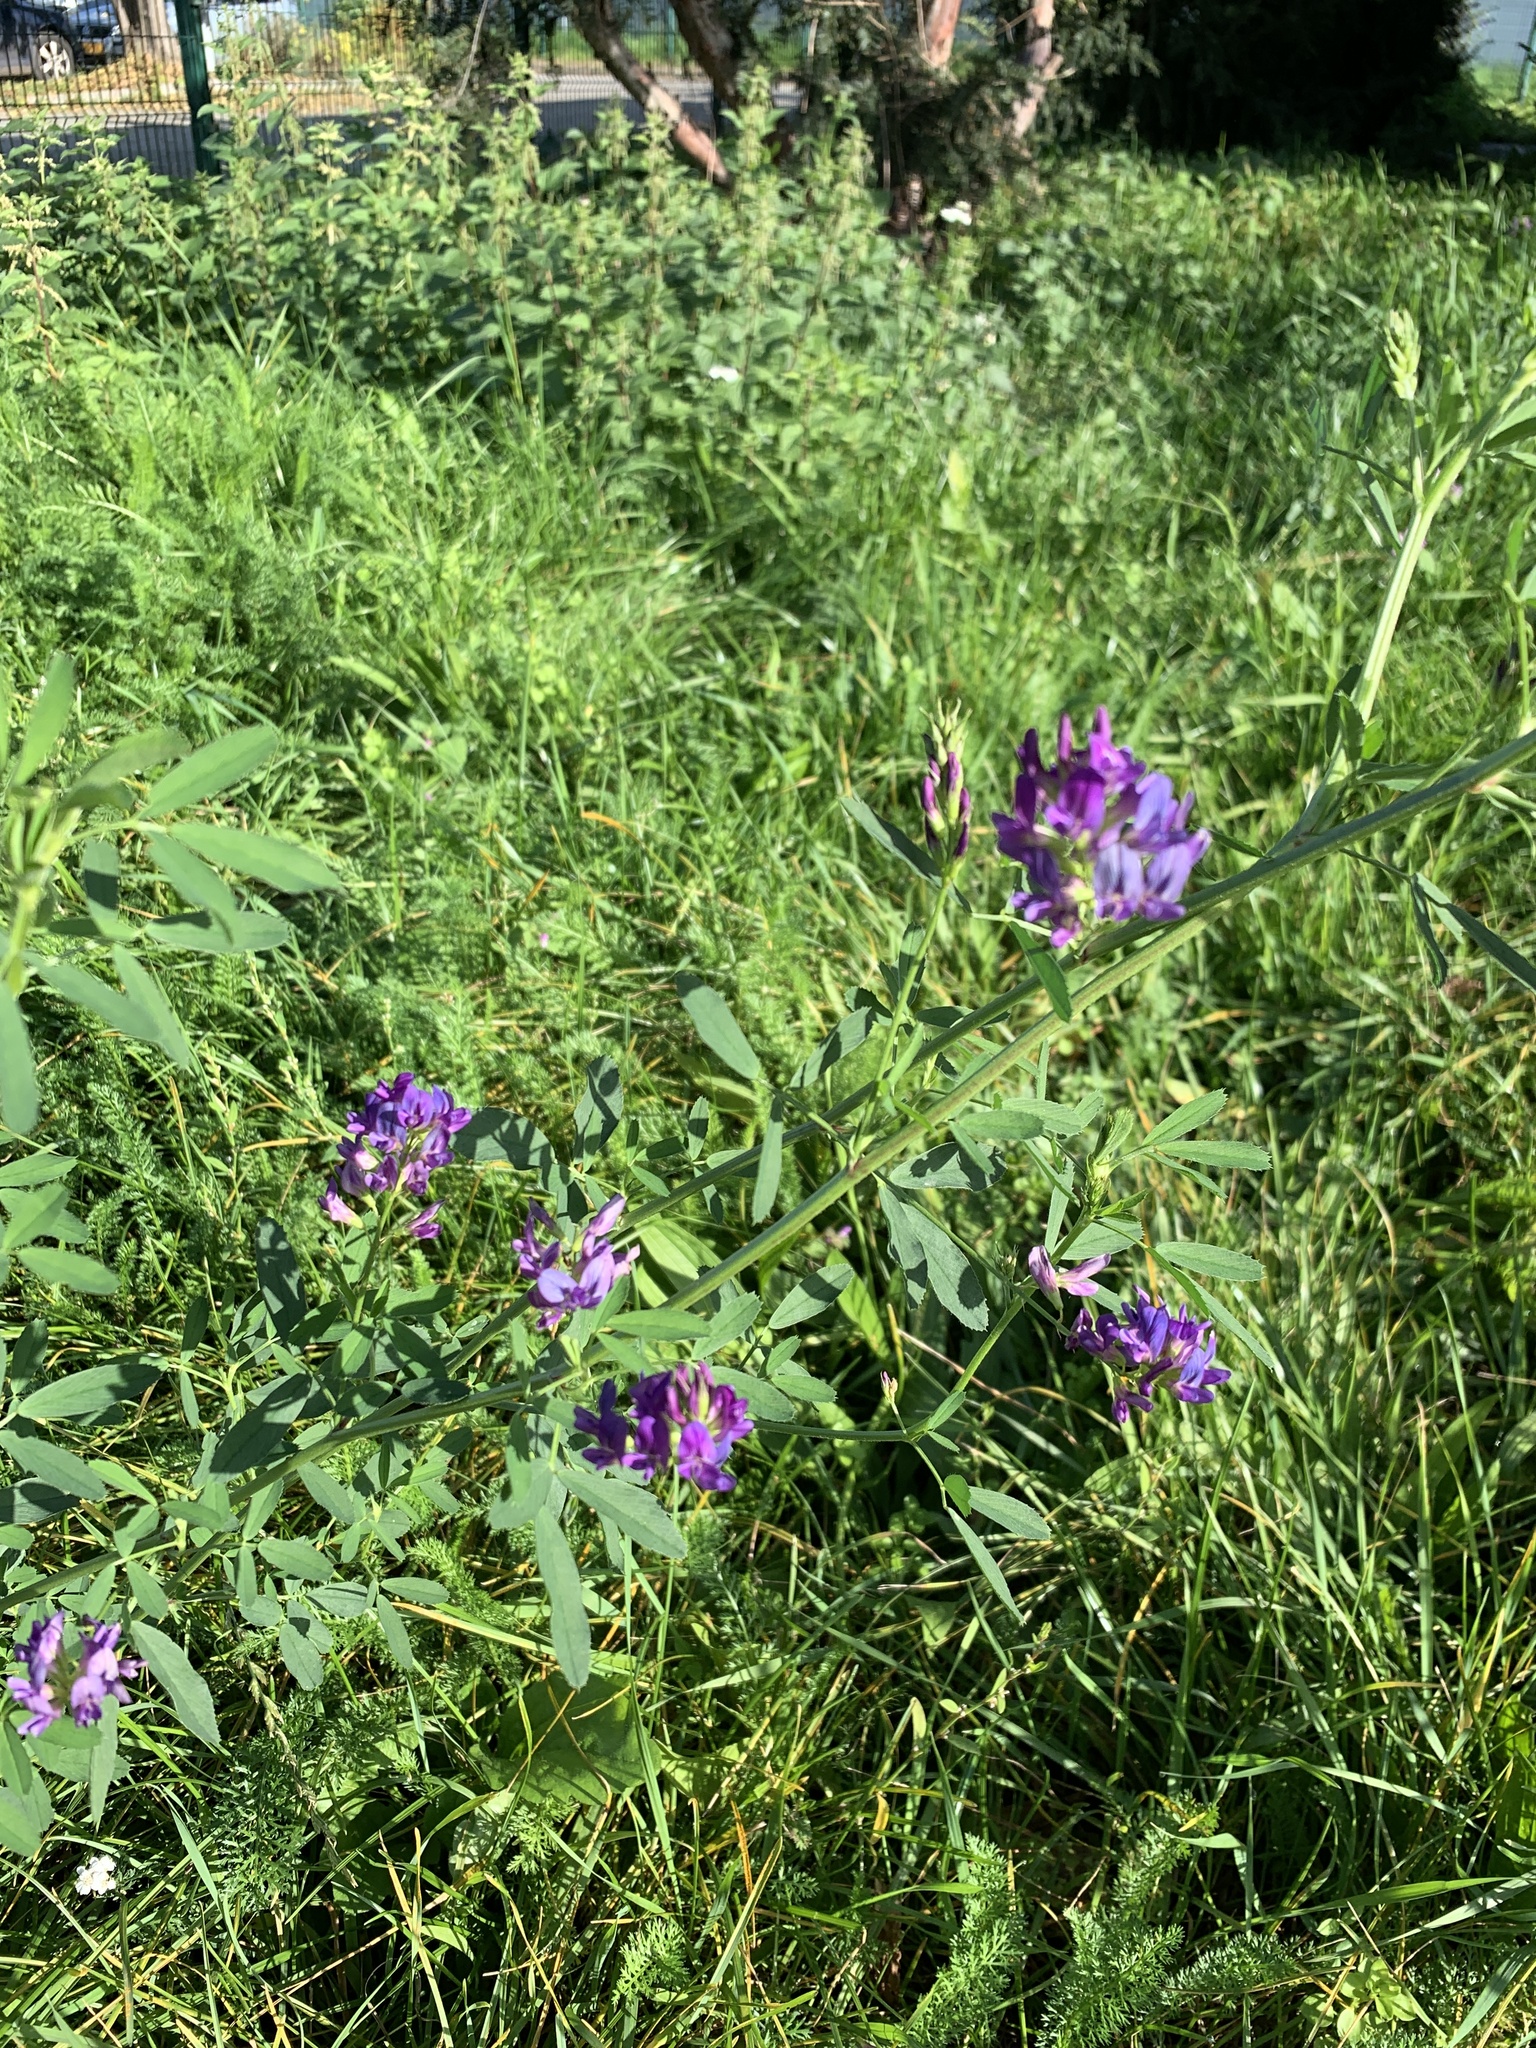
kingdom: Plantae
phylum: Tracheophyta
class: Magnoliopsida
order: Fabales
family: Fabaceae
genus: Medicago
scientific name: Medicago sativa
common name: Alfalfa
